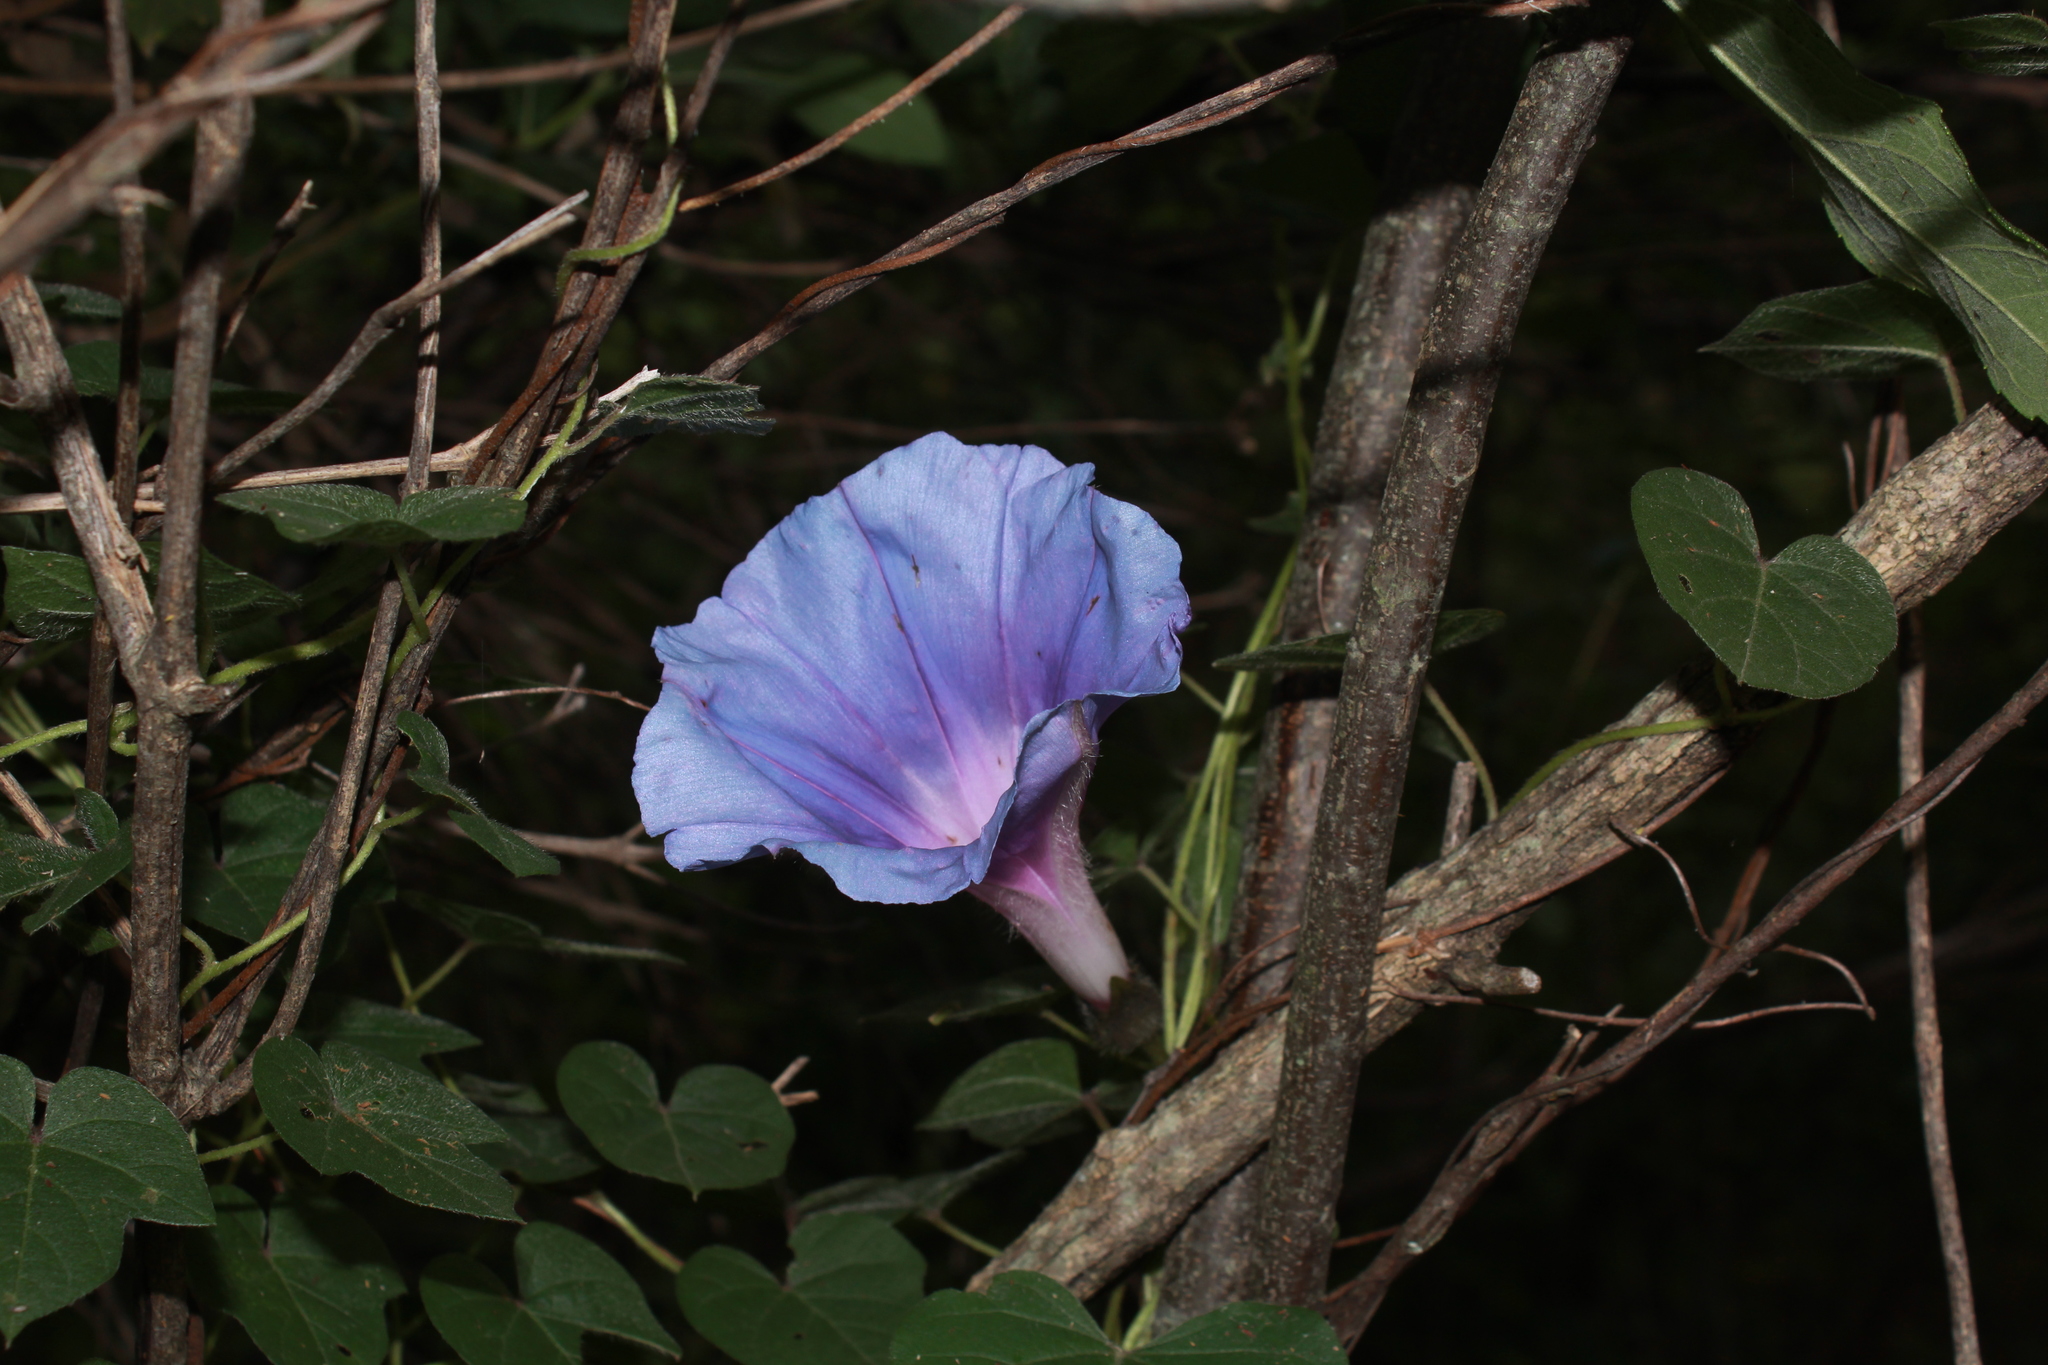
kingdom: Plantae
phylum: Tracheophyta
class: Magnoliopsida
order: Solanales
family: Convolvulaceae
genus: Ipomoea
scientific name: Ipomoea laeta
